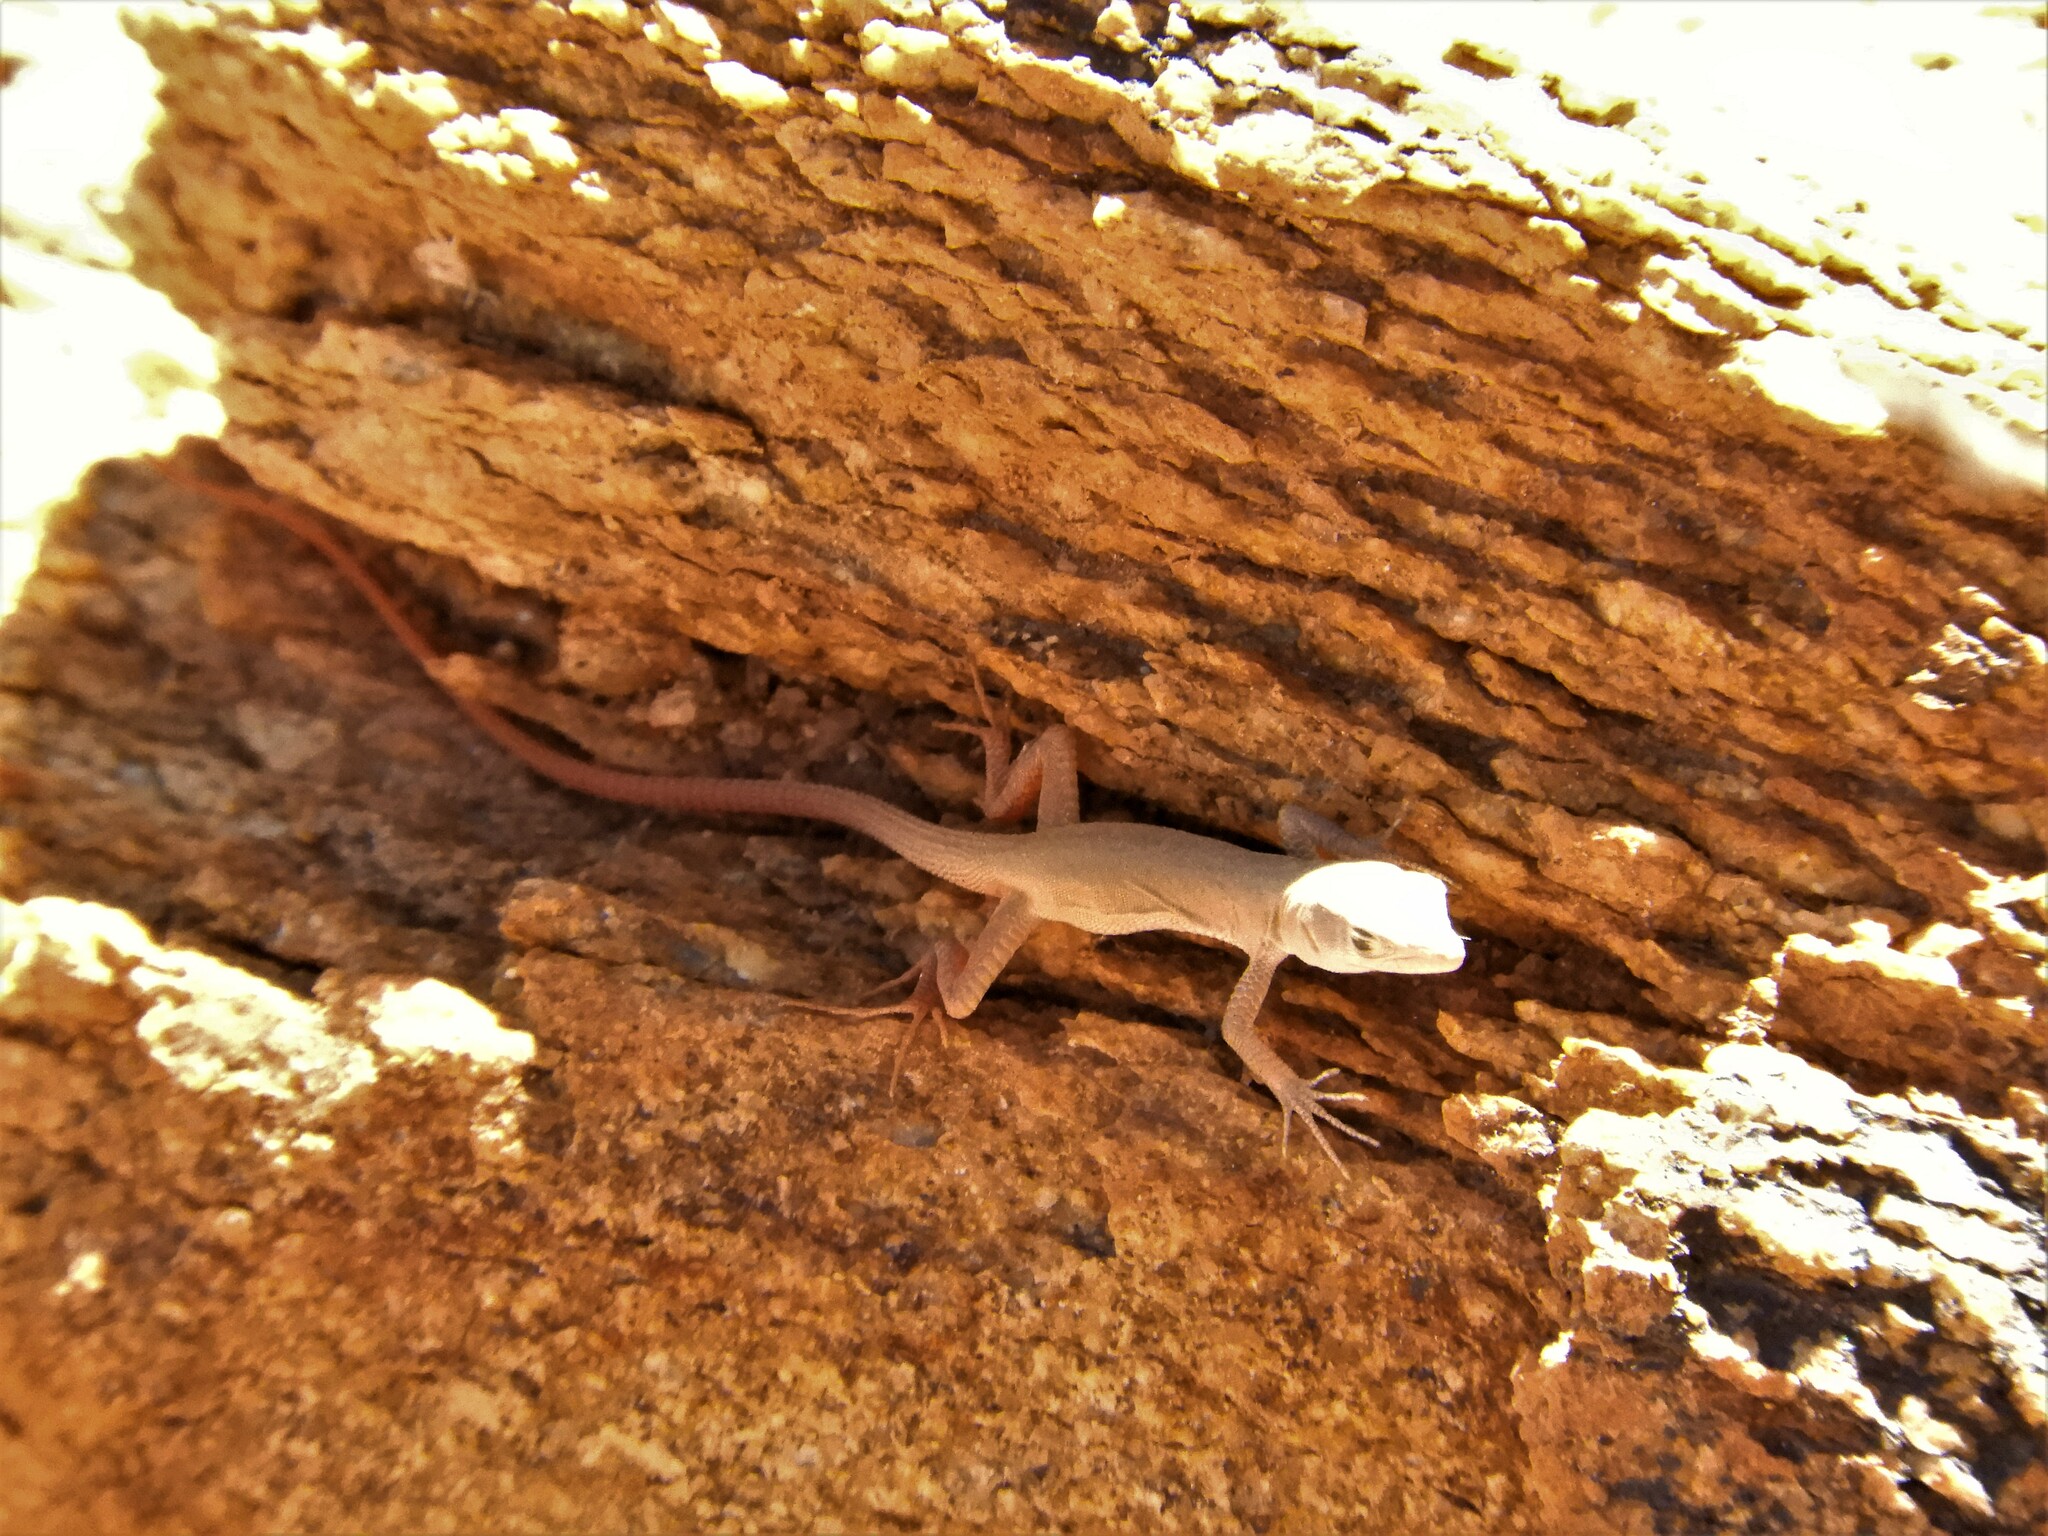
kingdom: Animalia
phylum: Chordata
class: Squamata
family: Lacertidae
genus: Pedioplanis
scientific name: Pedioplanis inornata
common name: Plain sand lizard
